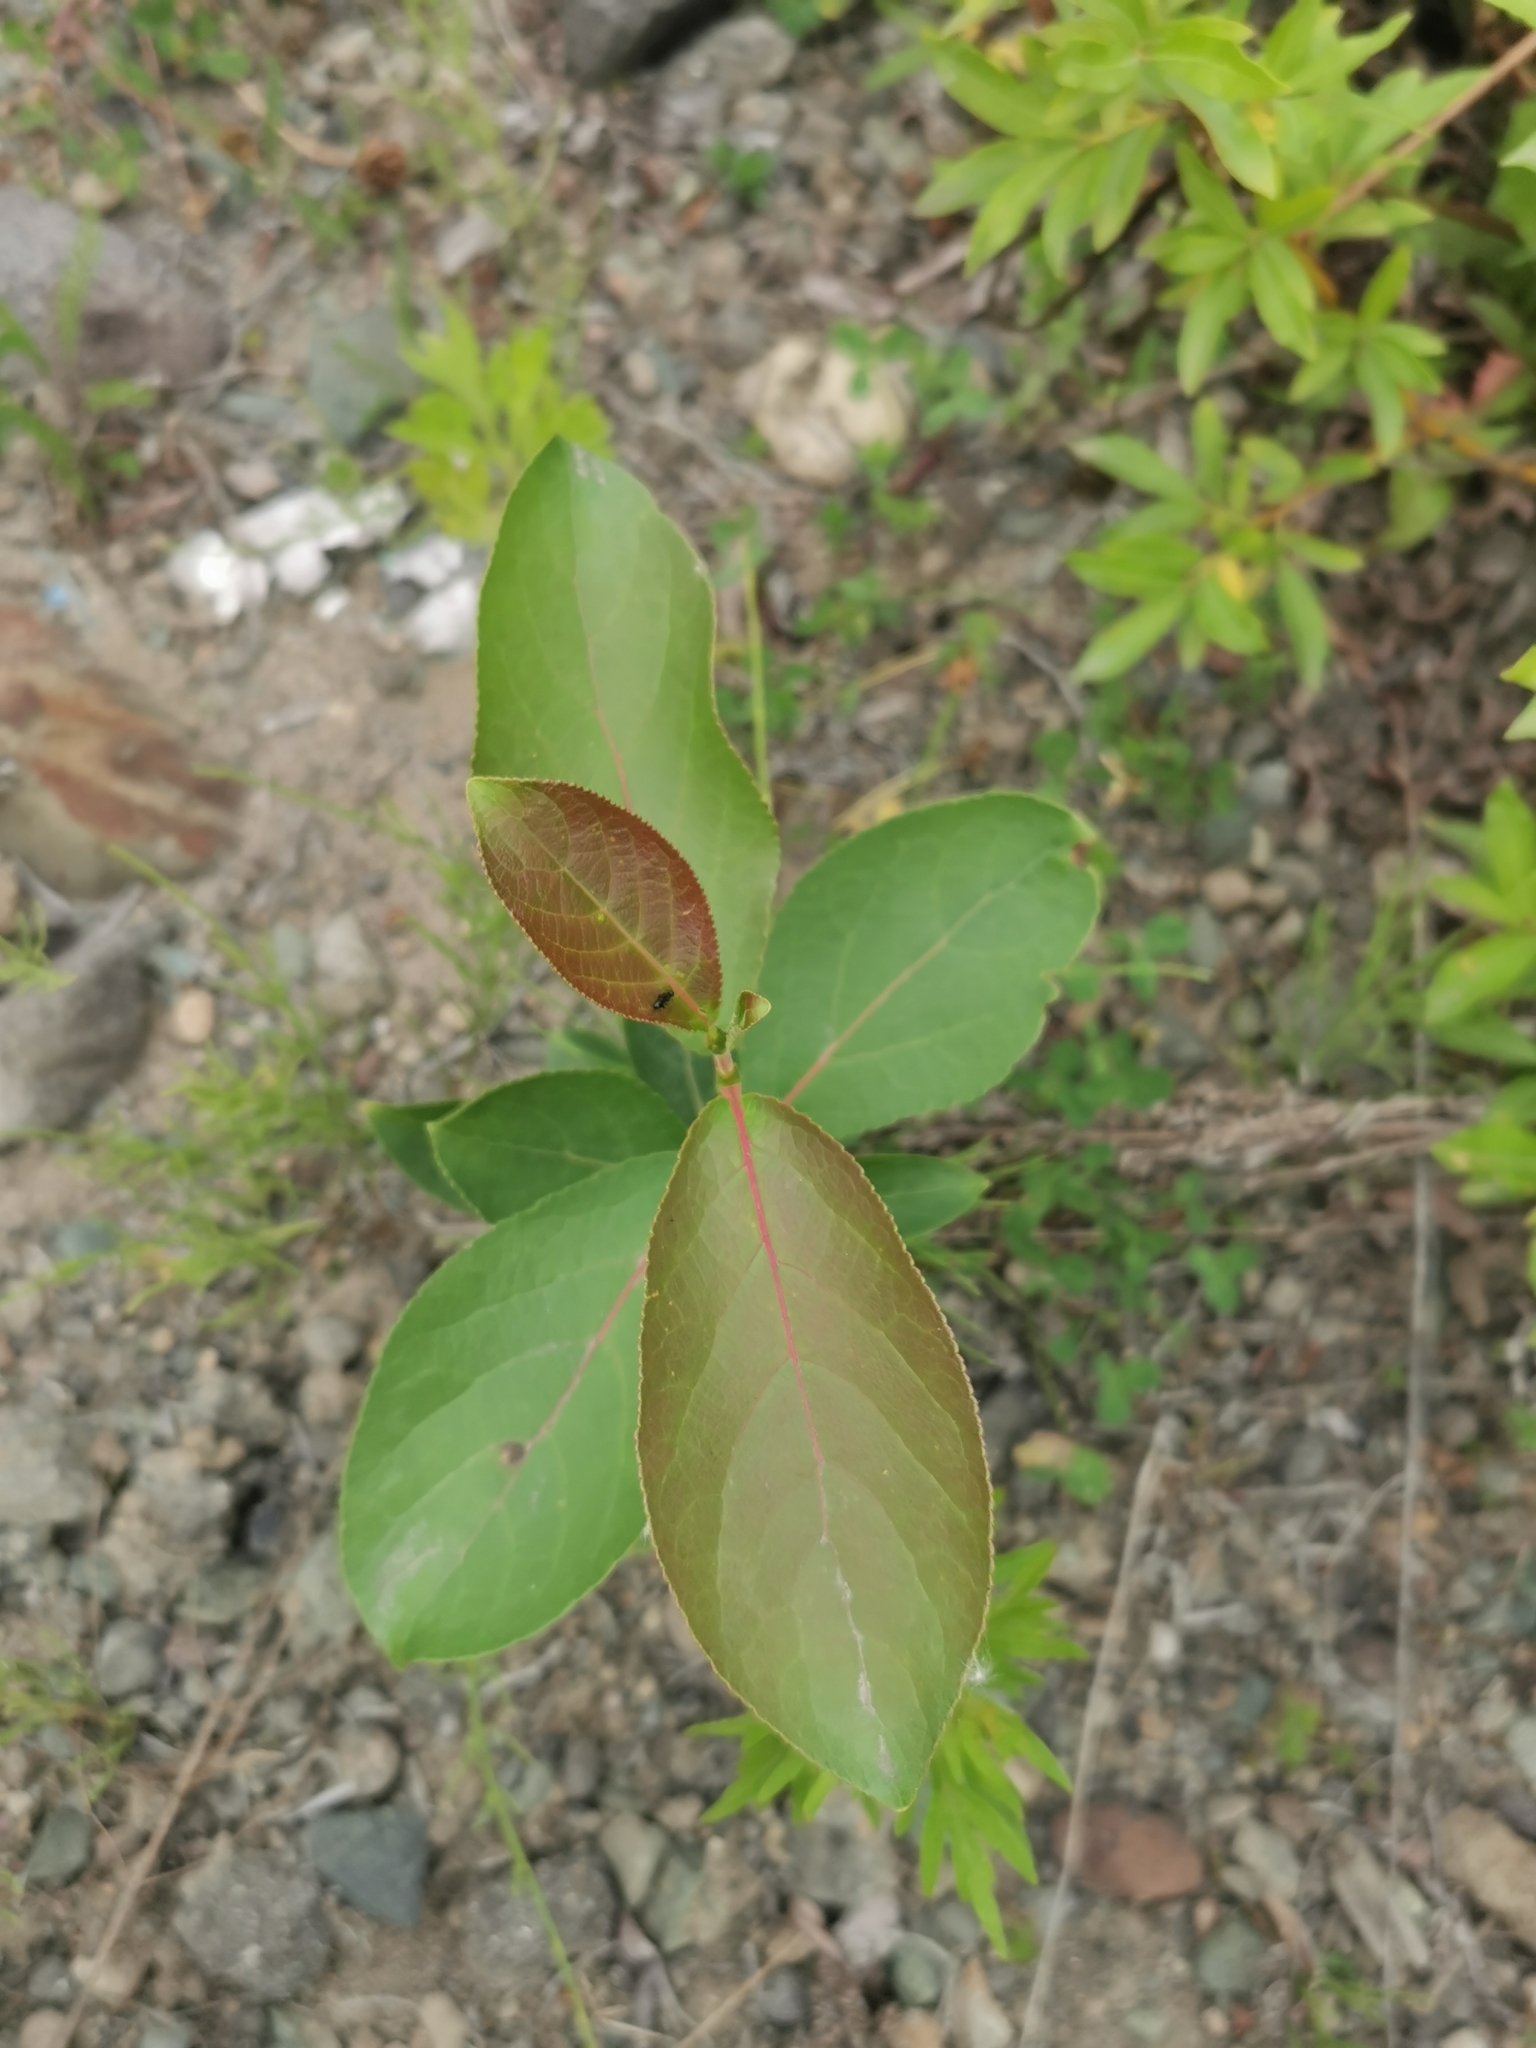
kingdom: Plantae
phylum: Tracheophyta
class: Magnoliopsida
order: Malpighiales
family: Salicaceae
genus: Populus
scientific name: Populus suaveolens
